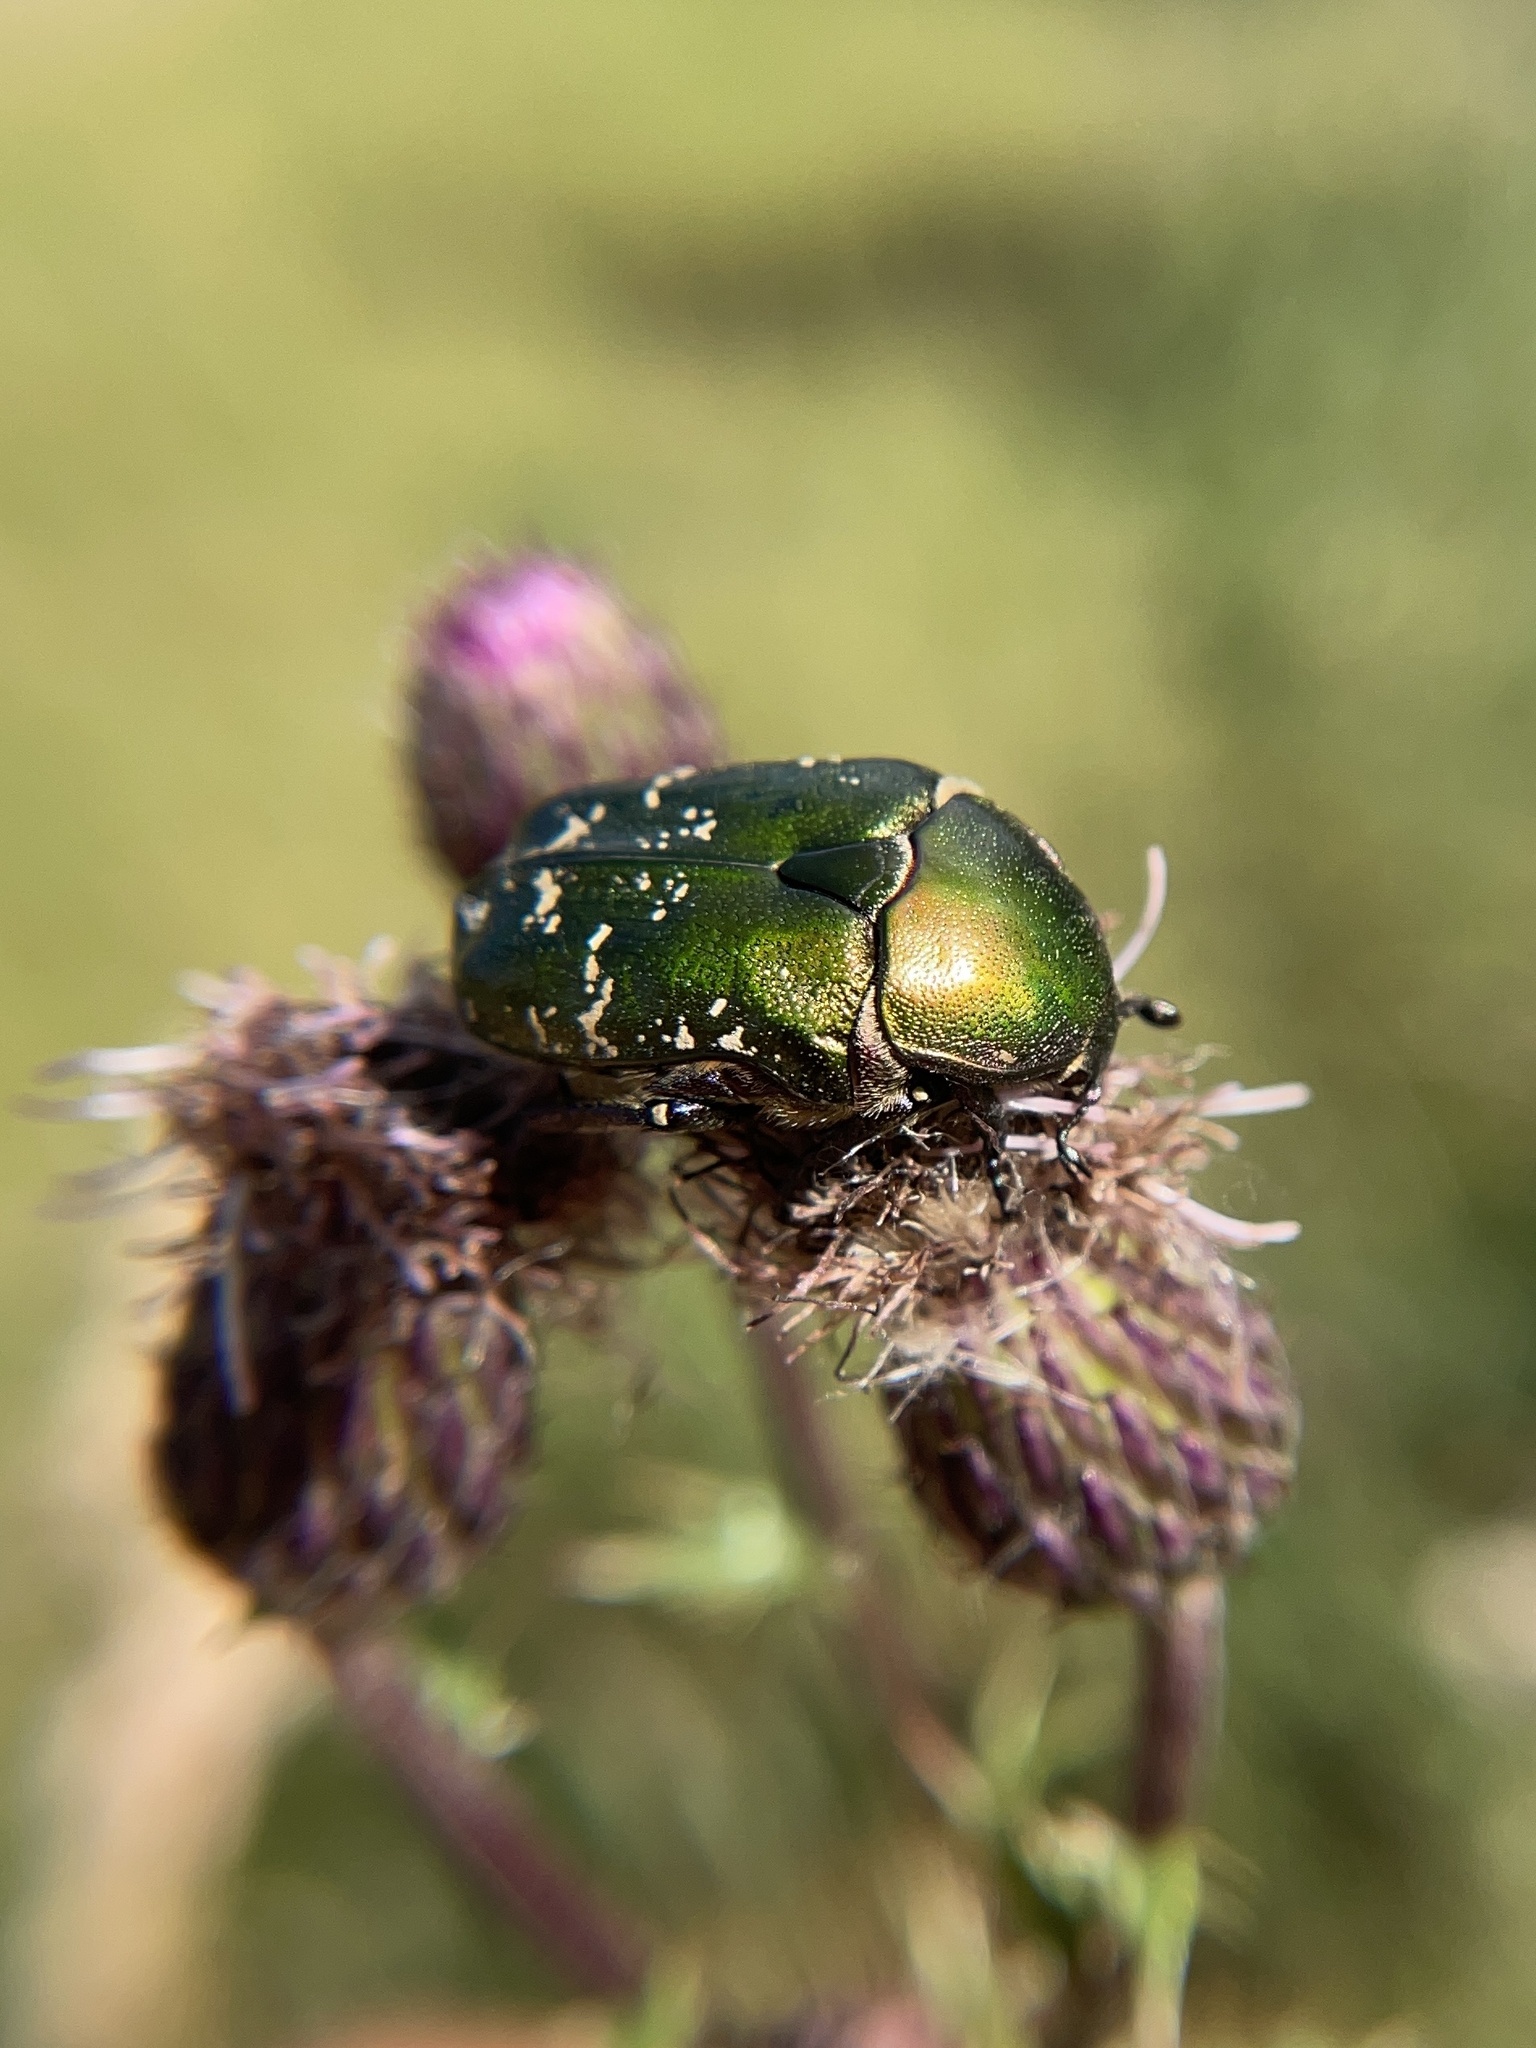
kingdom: Animalia
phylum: Arthropoda
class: Insecta
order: Coleoptera
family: Scarabaeidae
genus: Protaetia
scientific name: Protaetia cuprea
